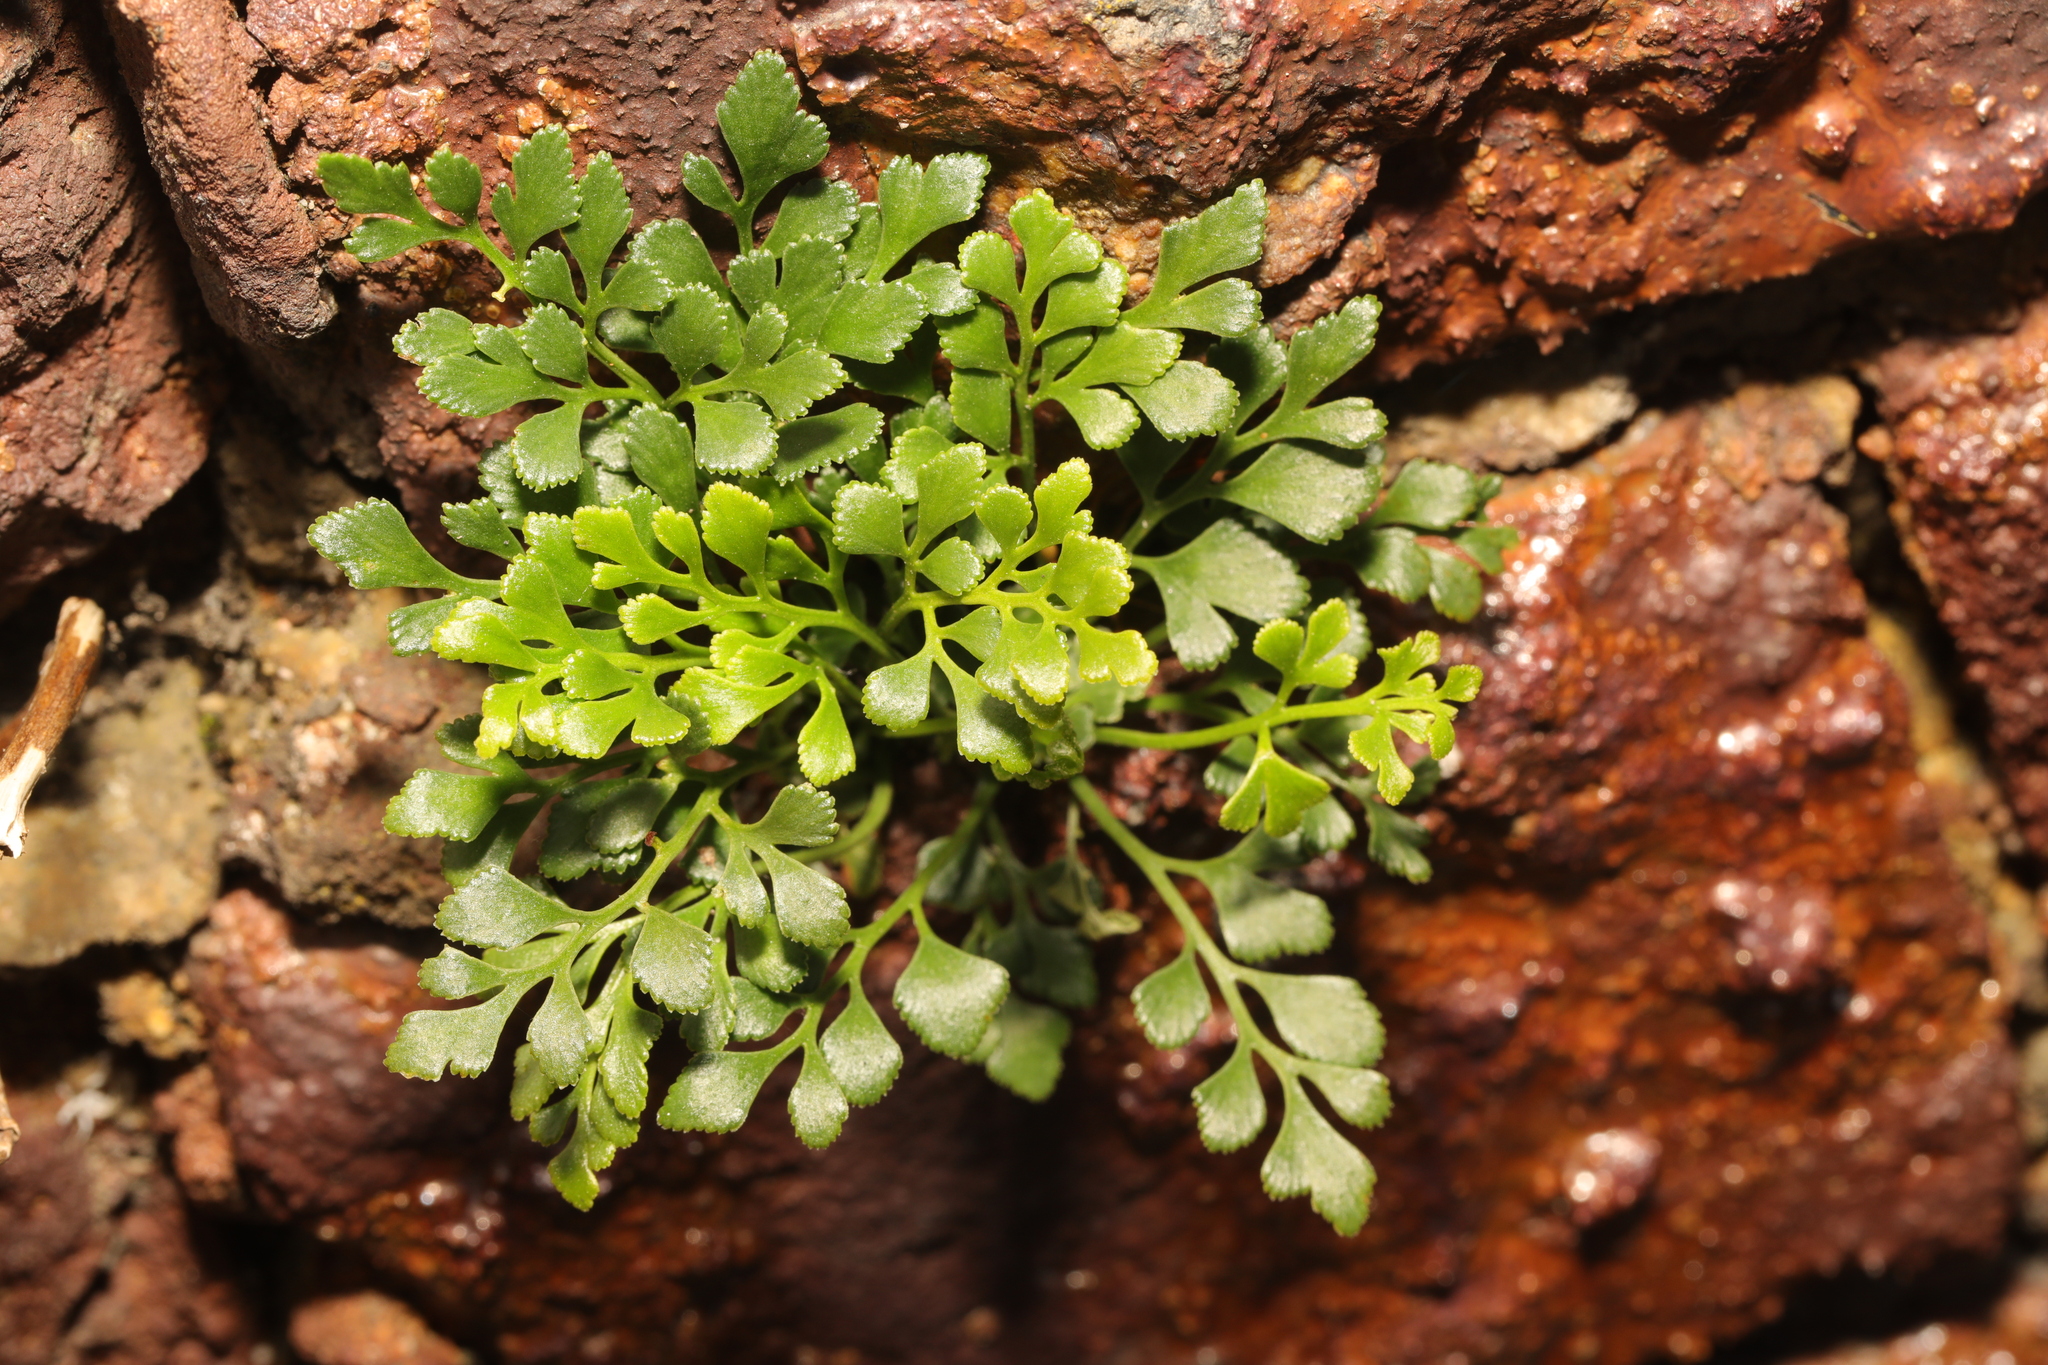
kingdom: Plantae
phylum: Tracheophyta
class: Polypodiopsida
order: Polypodiales
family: Aspleniaceae
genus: Asplenium
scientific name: Asplenium ruta-muraria
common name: Wall-rue
